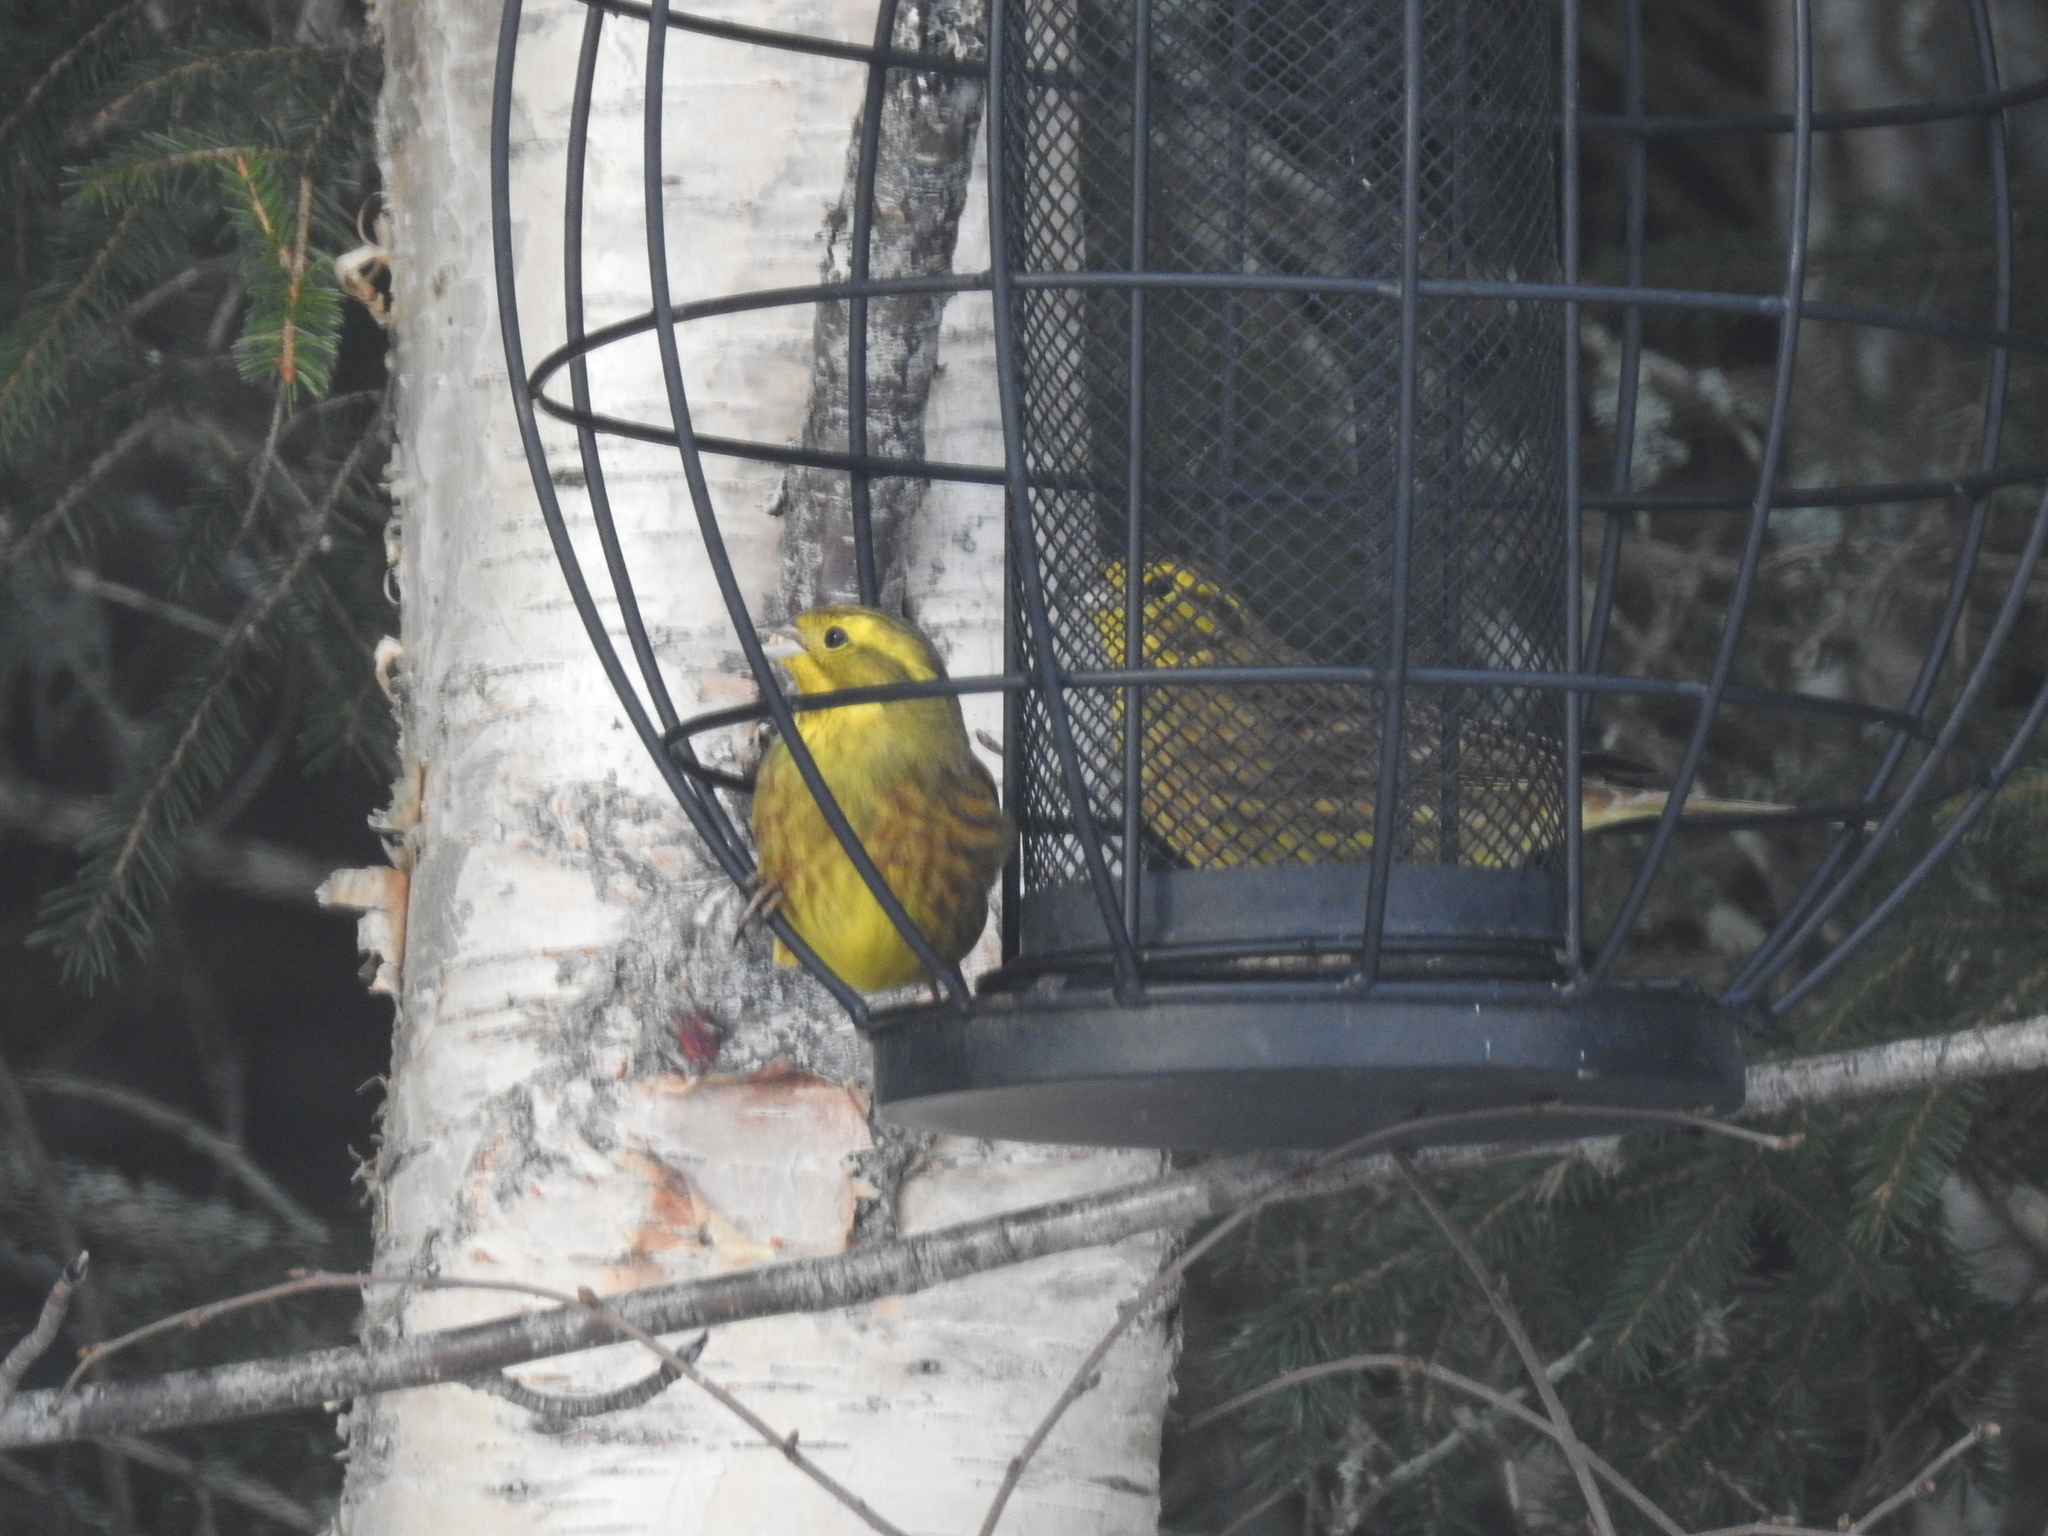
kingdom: Animalia
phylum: Chordata
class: Aves
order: Passeriformes
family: Emberizidae
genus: Emberiza
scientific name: Emberiza citrinella
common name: Yellowhammer
